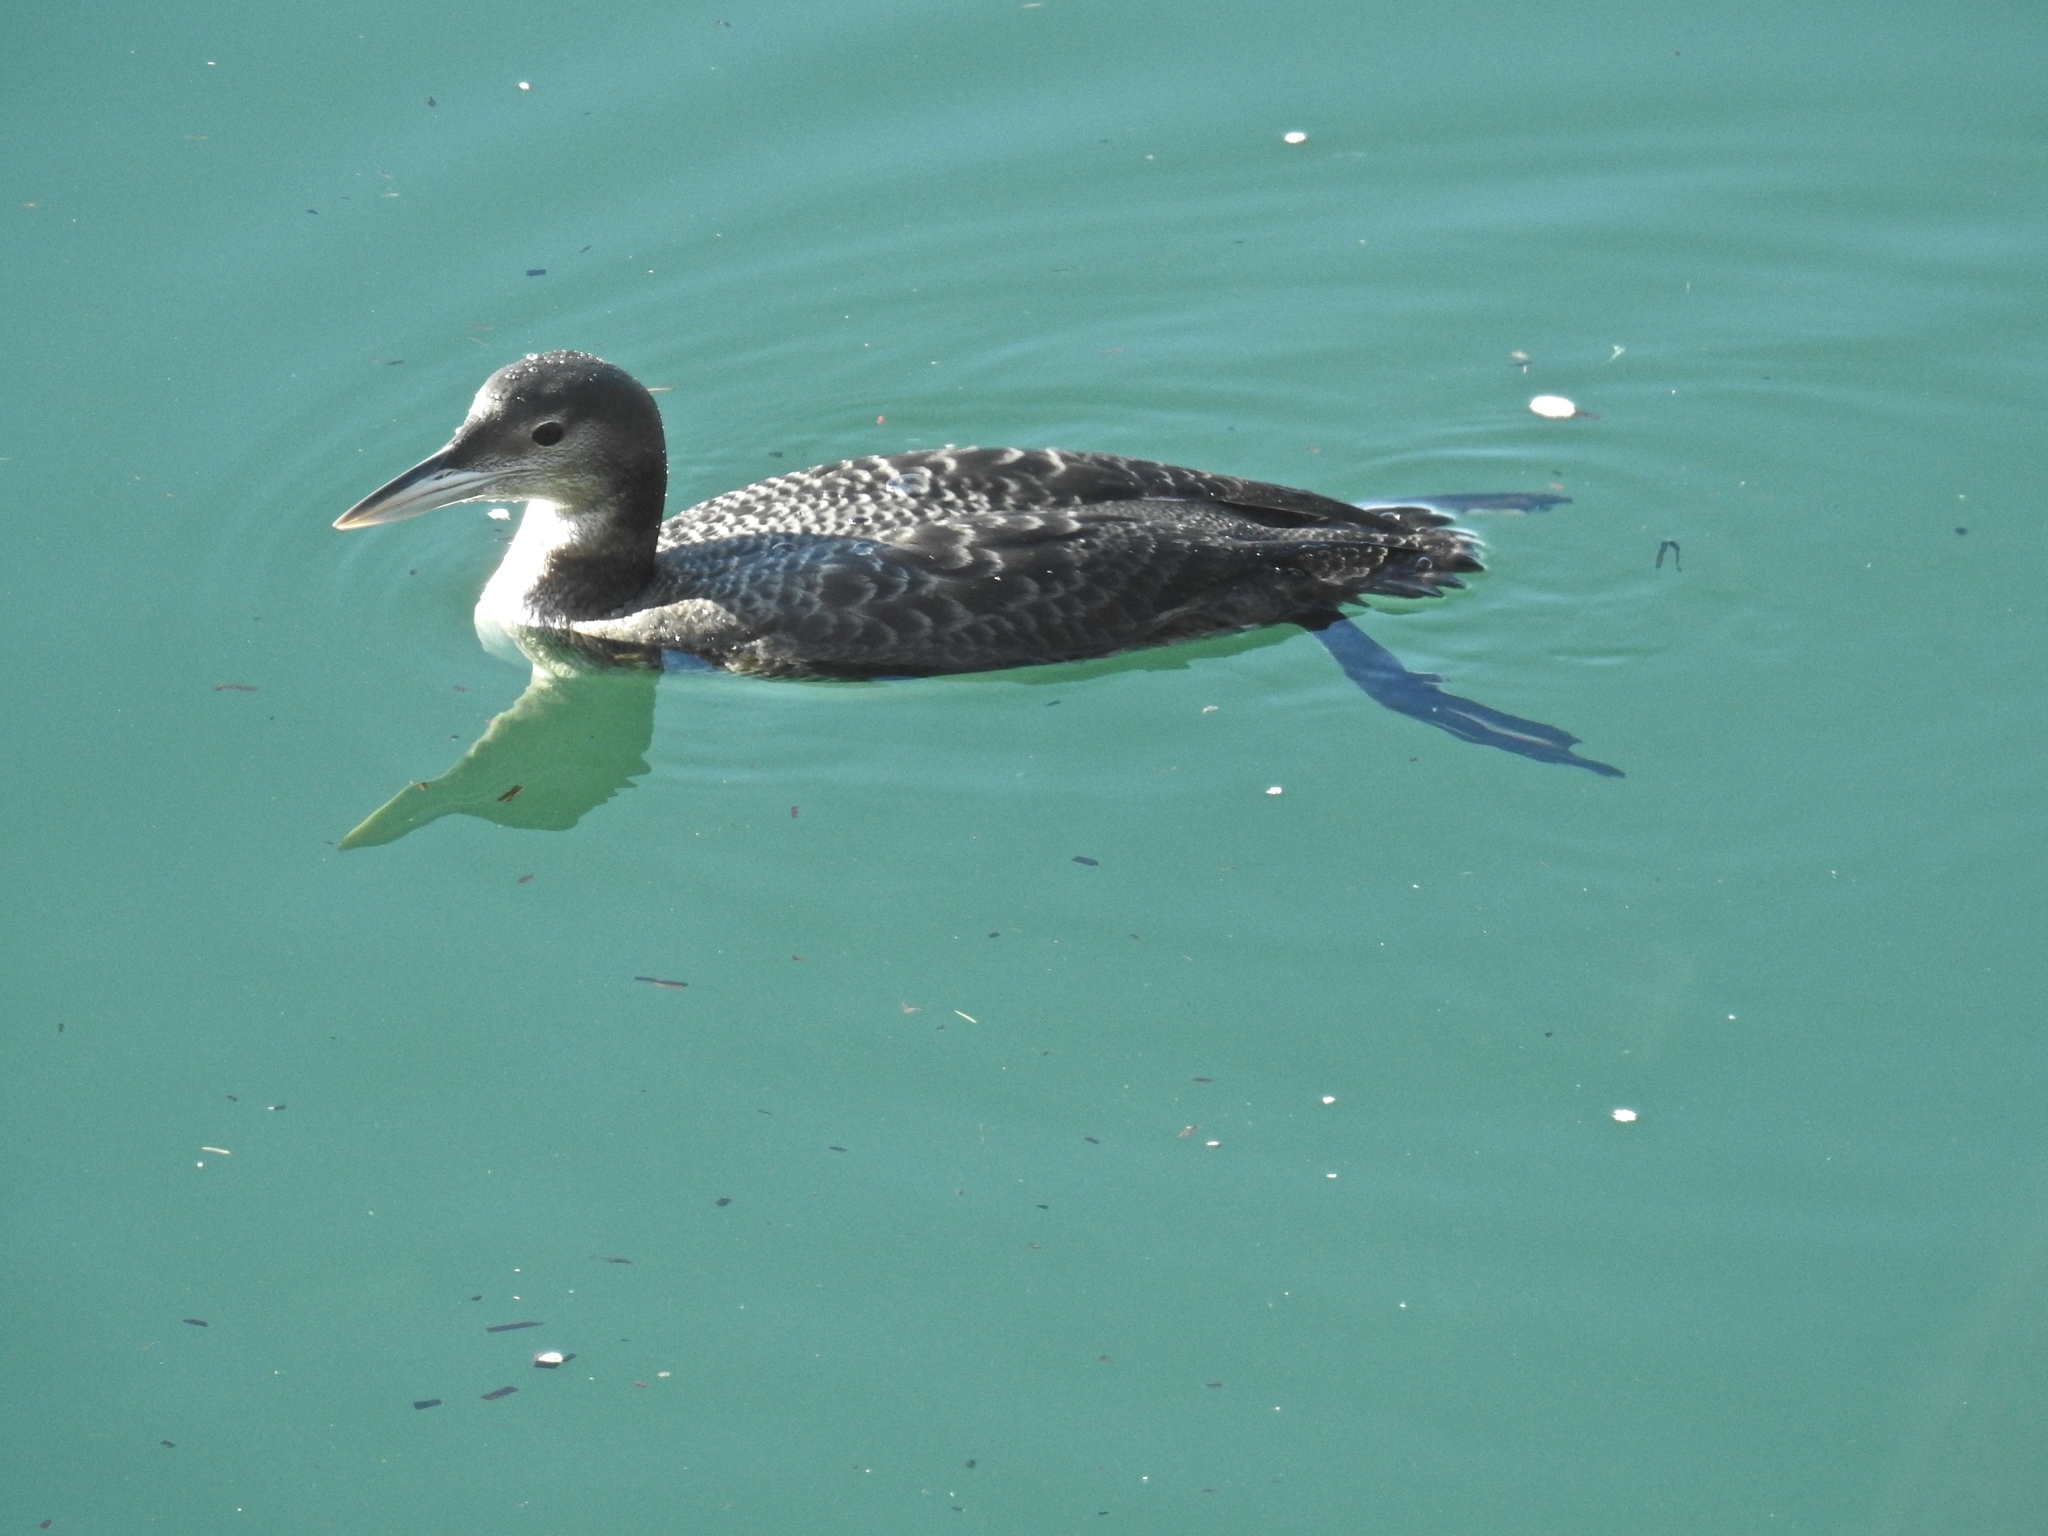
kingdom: Animalia
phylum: Chordata
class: Aves
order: Gaviiformes
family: Gaviidae
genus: Gavia
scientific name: Gavia immer
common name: Common loon
